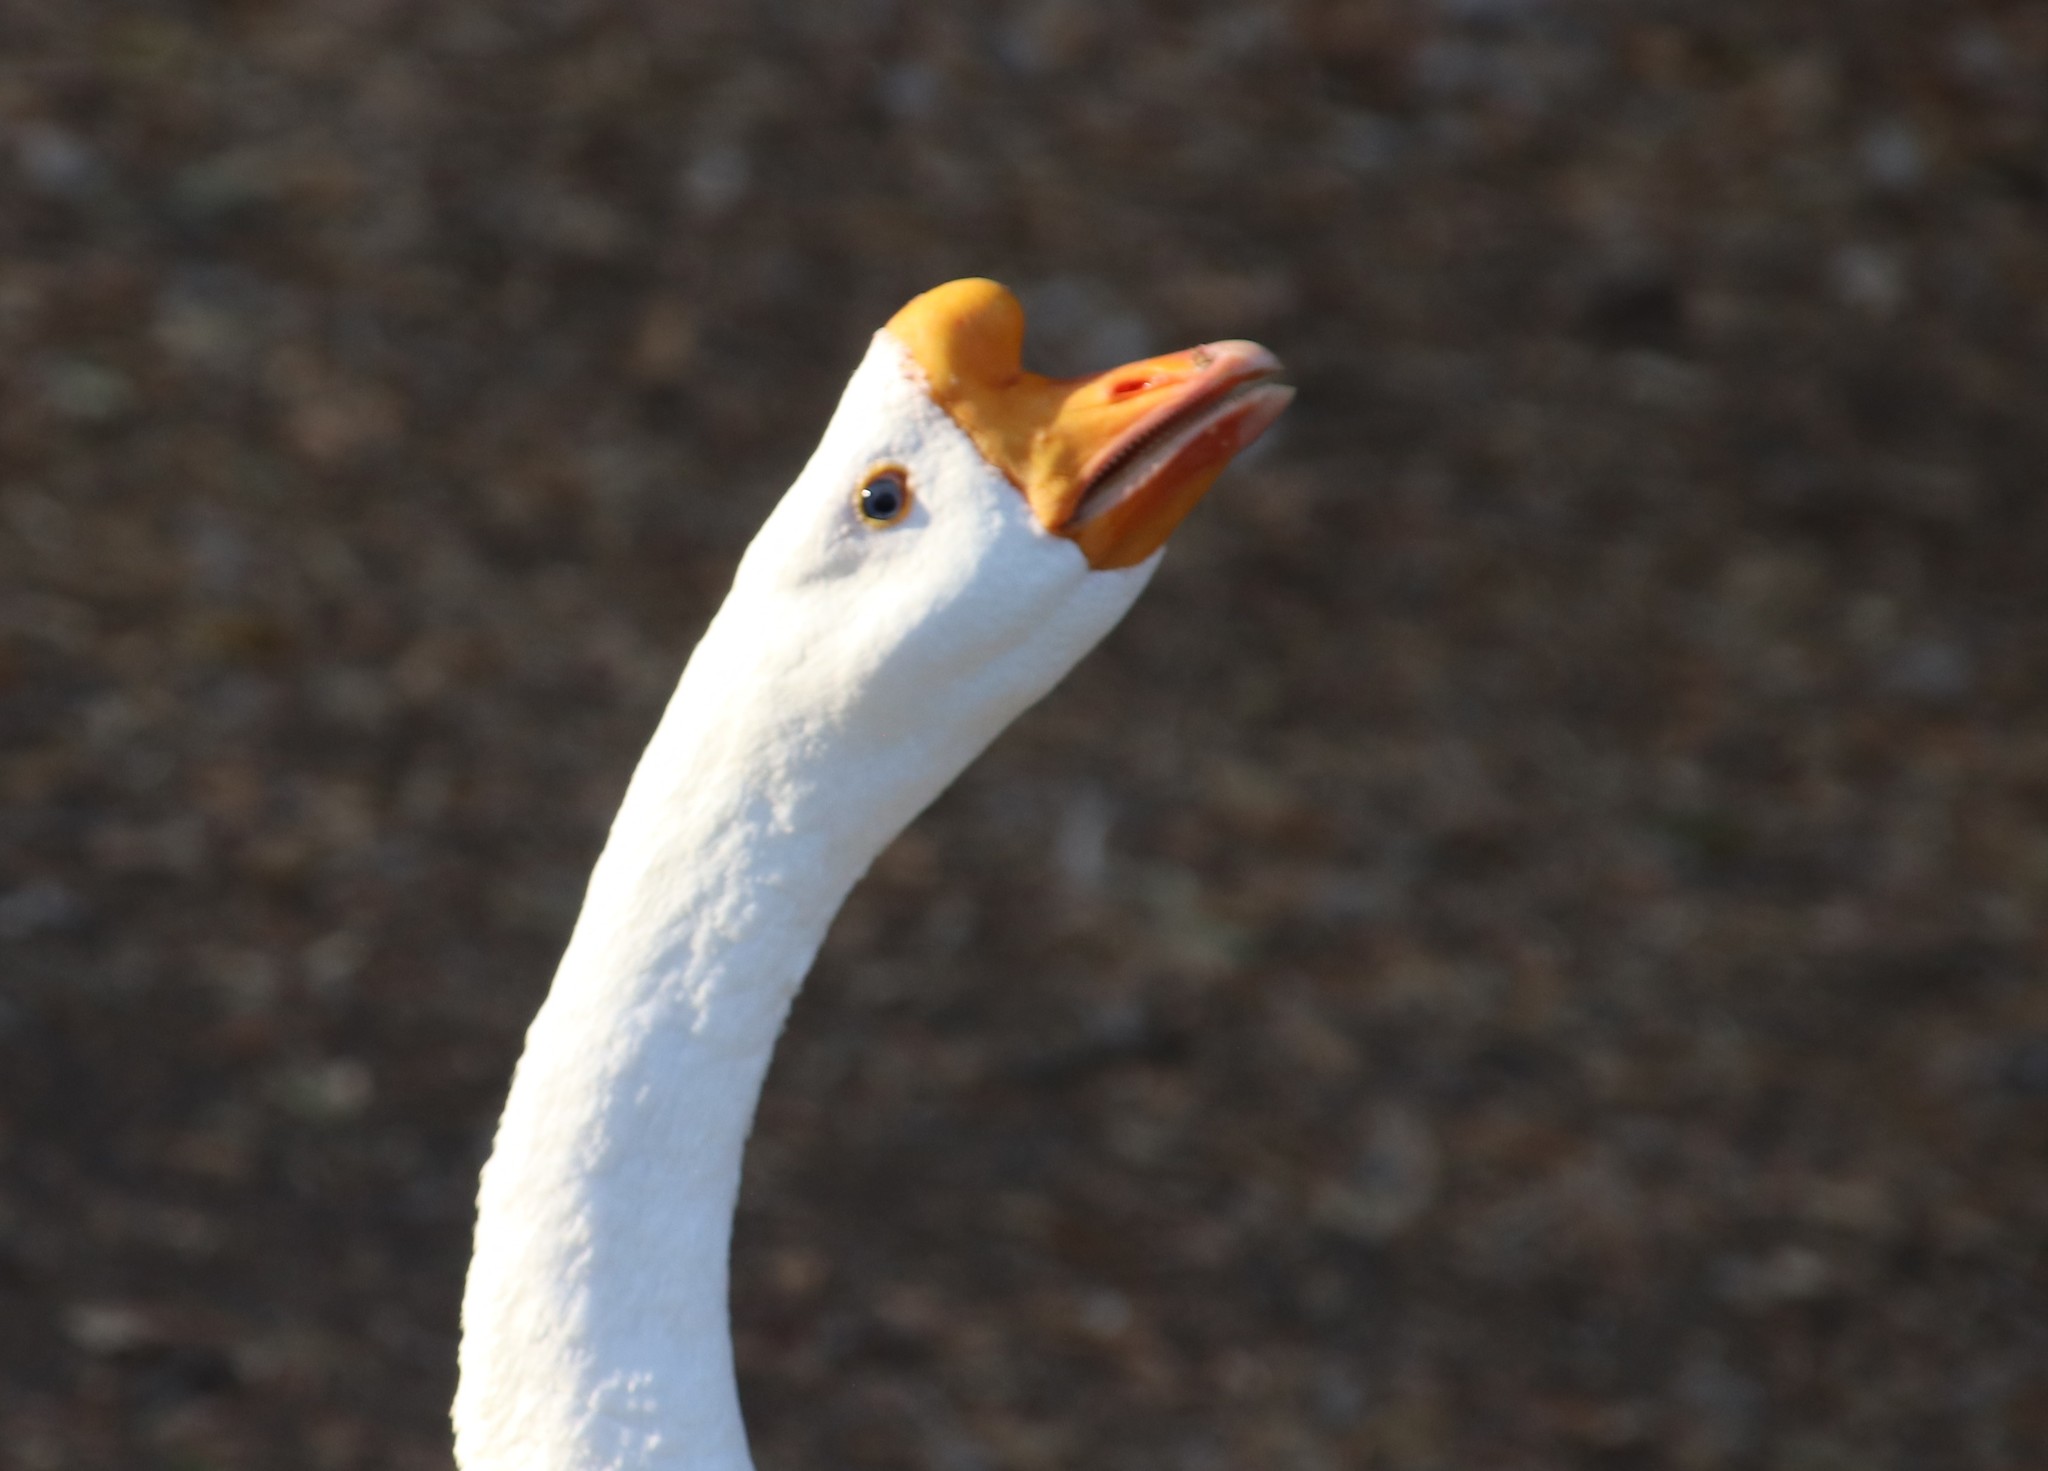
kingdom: Animalia
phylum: Chordata
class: Aves
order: Anseriformes
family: Anatidae
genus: Anser
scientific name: Anser cygnoides
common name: Swan goose
